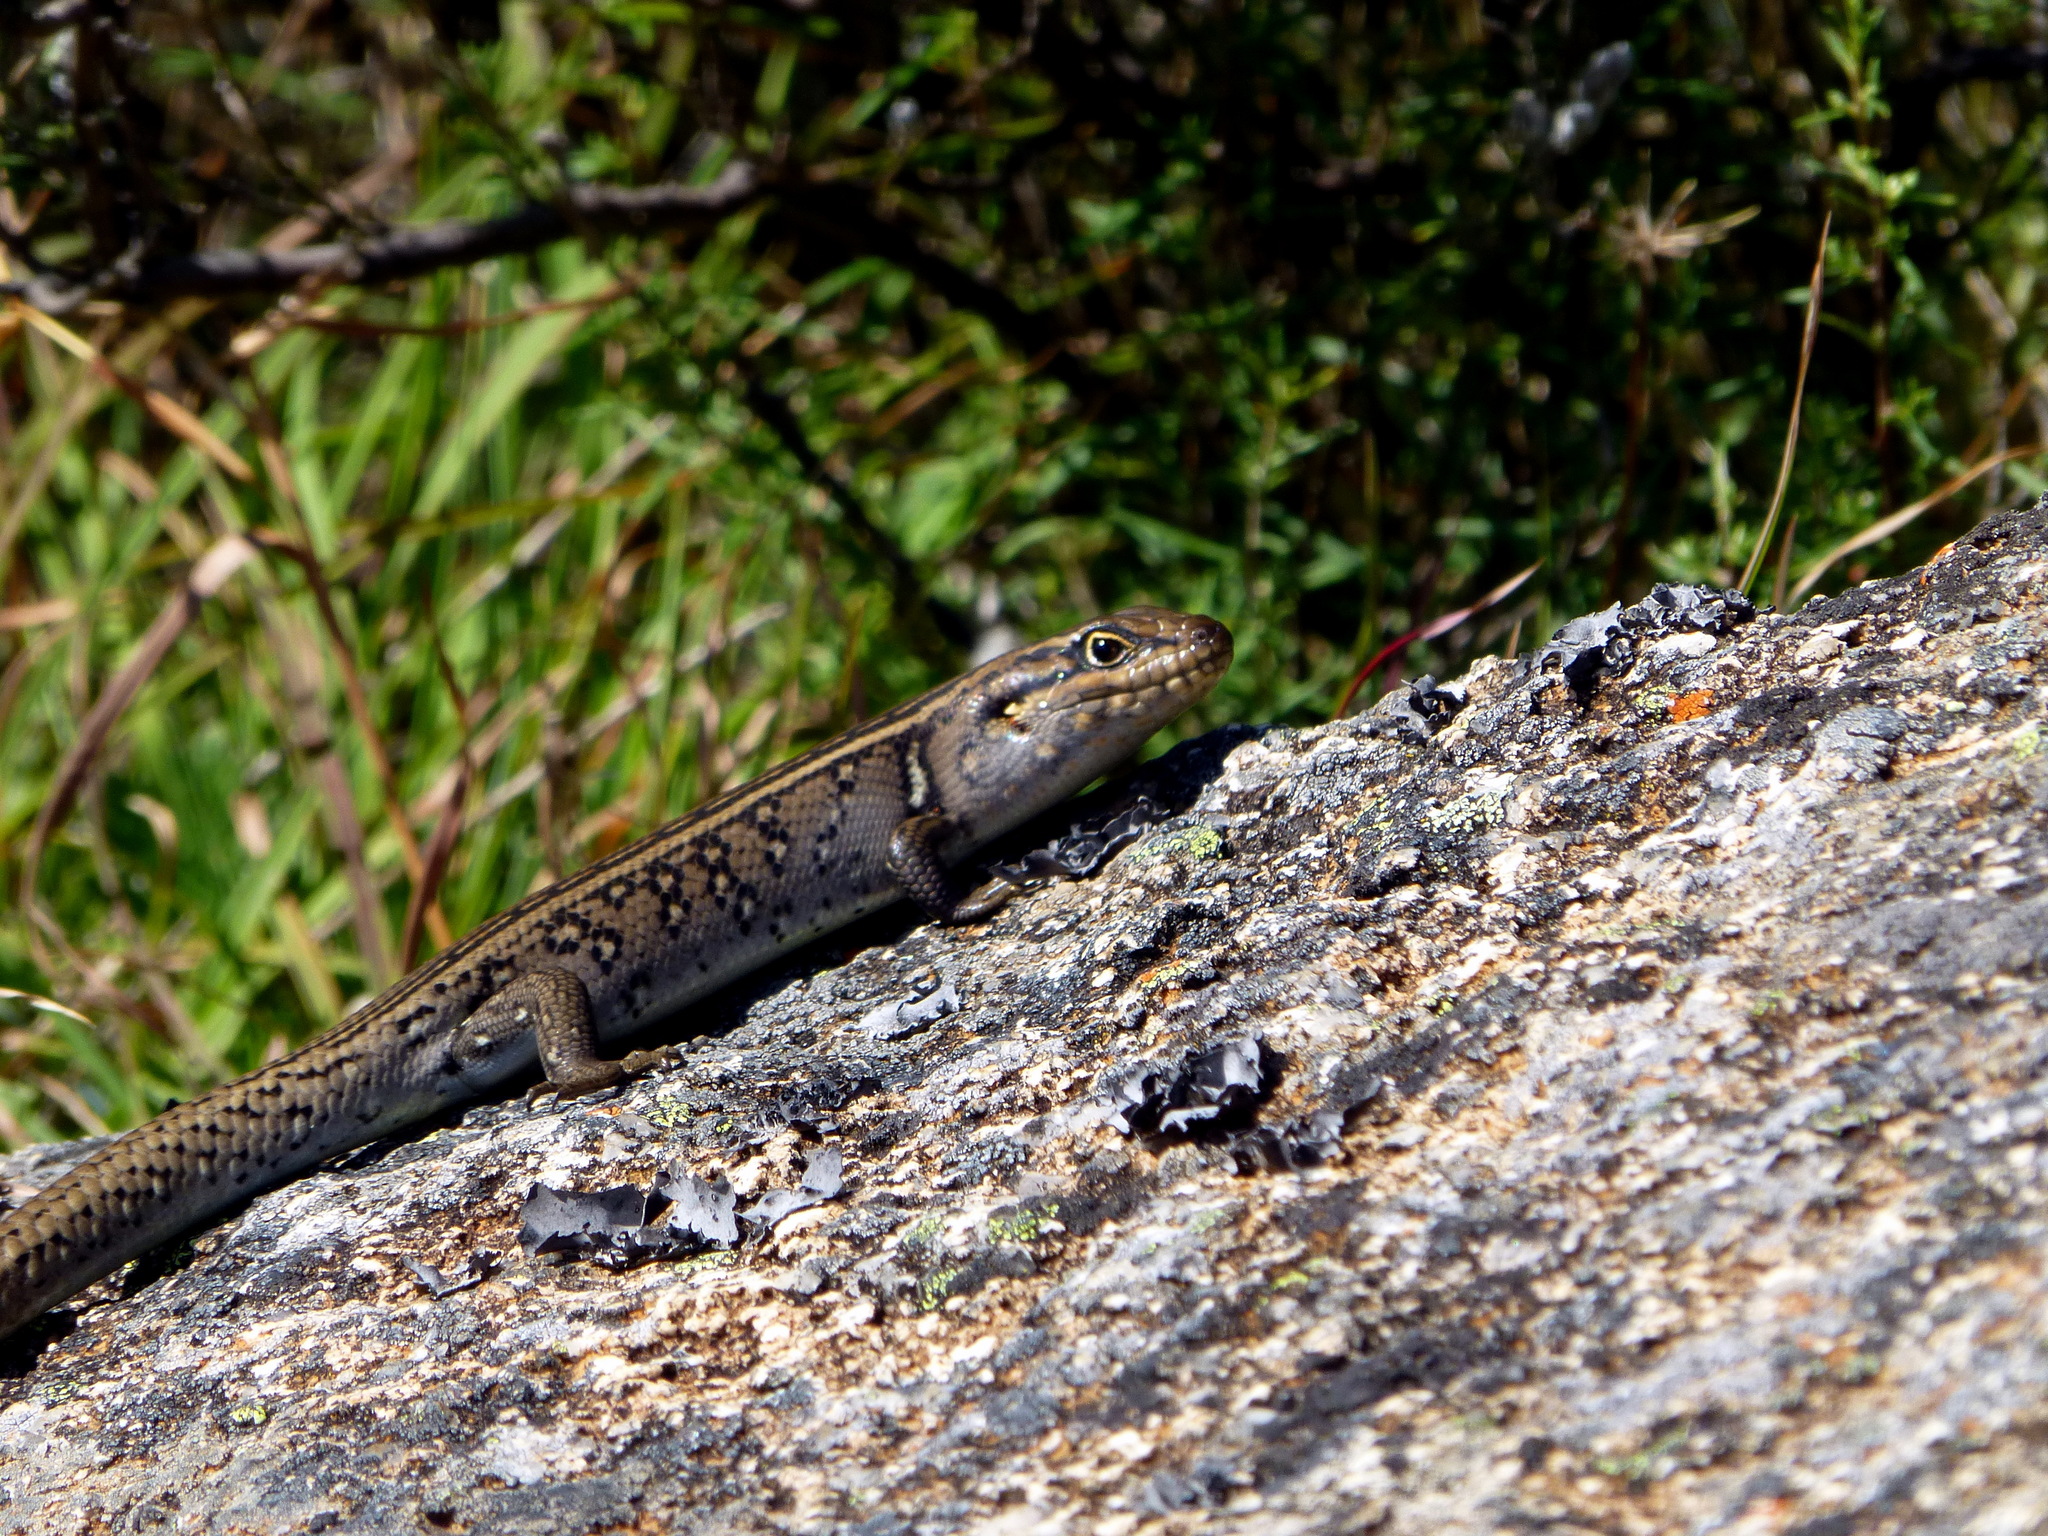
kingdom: Animalia
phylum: Chordata
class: Squamata
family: Scincidae
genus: Liopholis
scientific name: Liopholis whitii
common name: White's rock-skink
